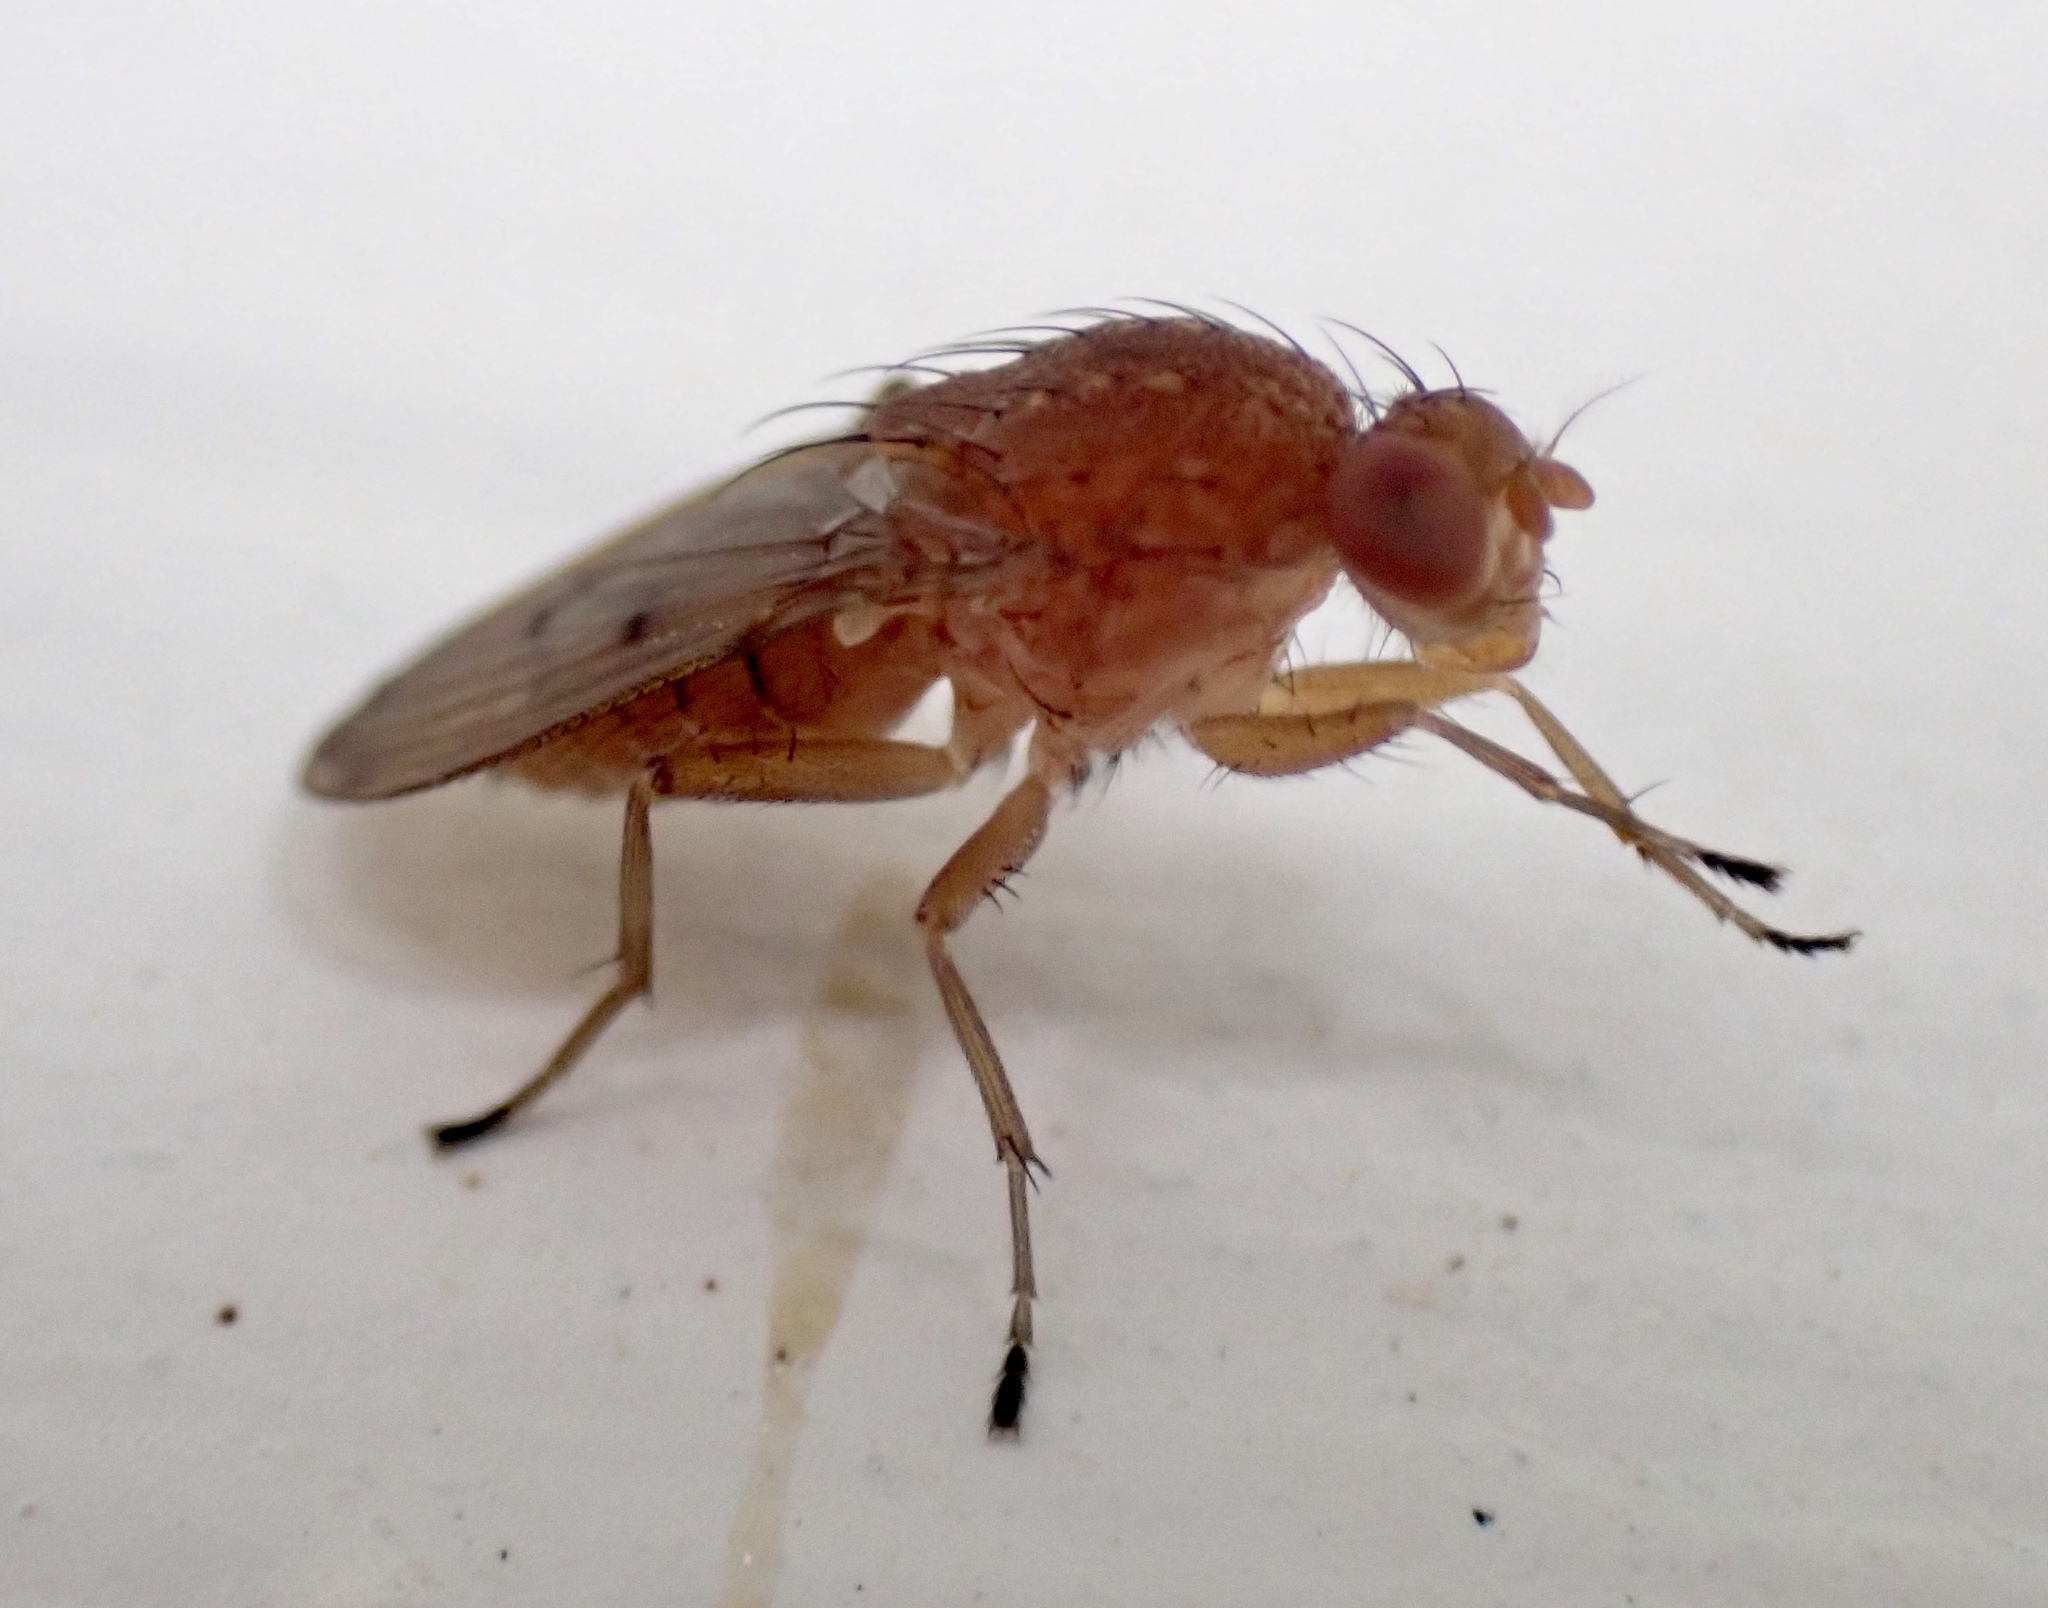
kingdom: Animalia
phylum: Arthropoda
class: Insecta
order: Diptera
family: Heleomyzidae
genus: Suillia
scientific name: Suillia quinquepunctata
